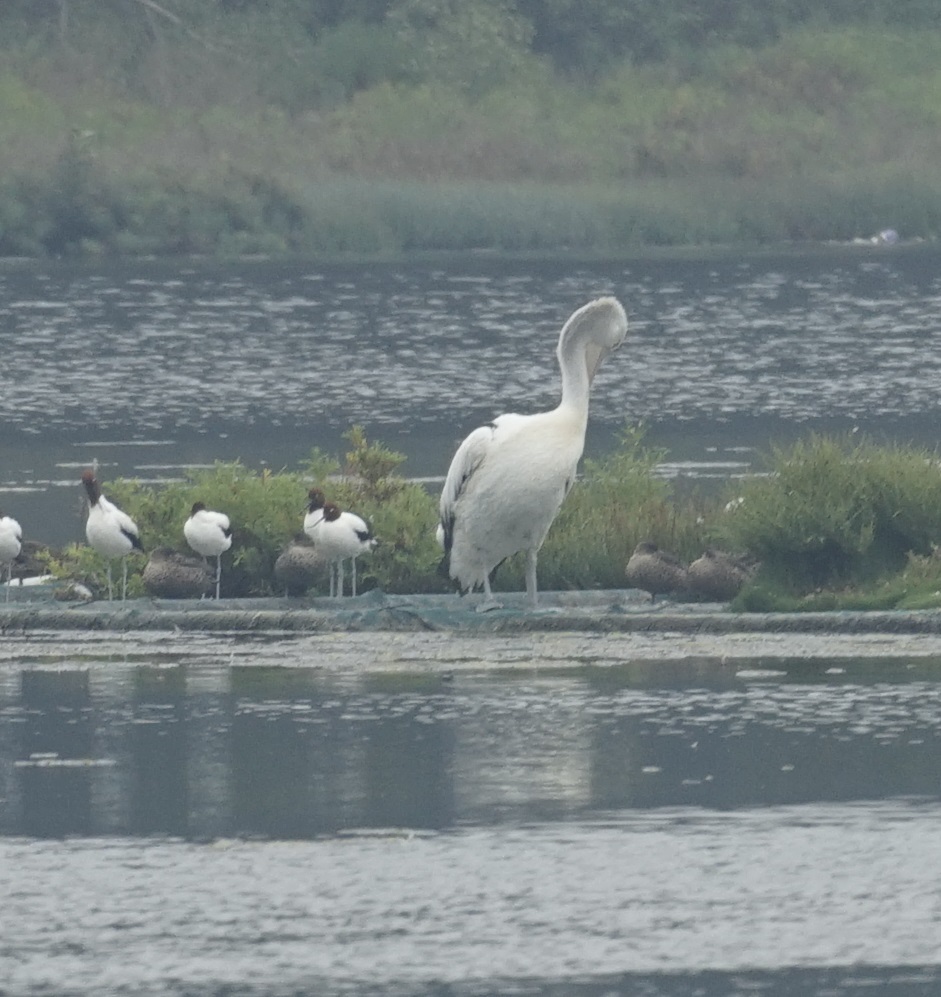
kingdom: Animalia
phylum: Chordata
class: Aves
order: Pelecaniformes
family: Pelecanidae
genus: Pelecanus
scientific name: Pelecanus conspicillatus
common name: Australian pelican
